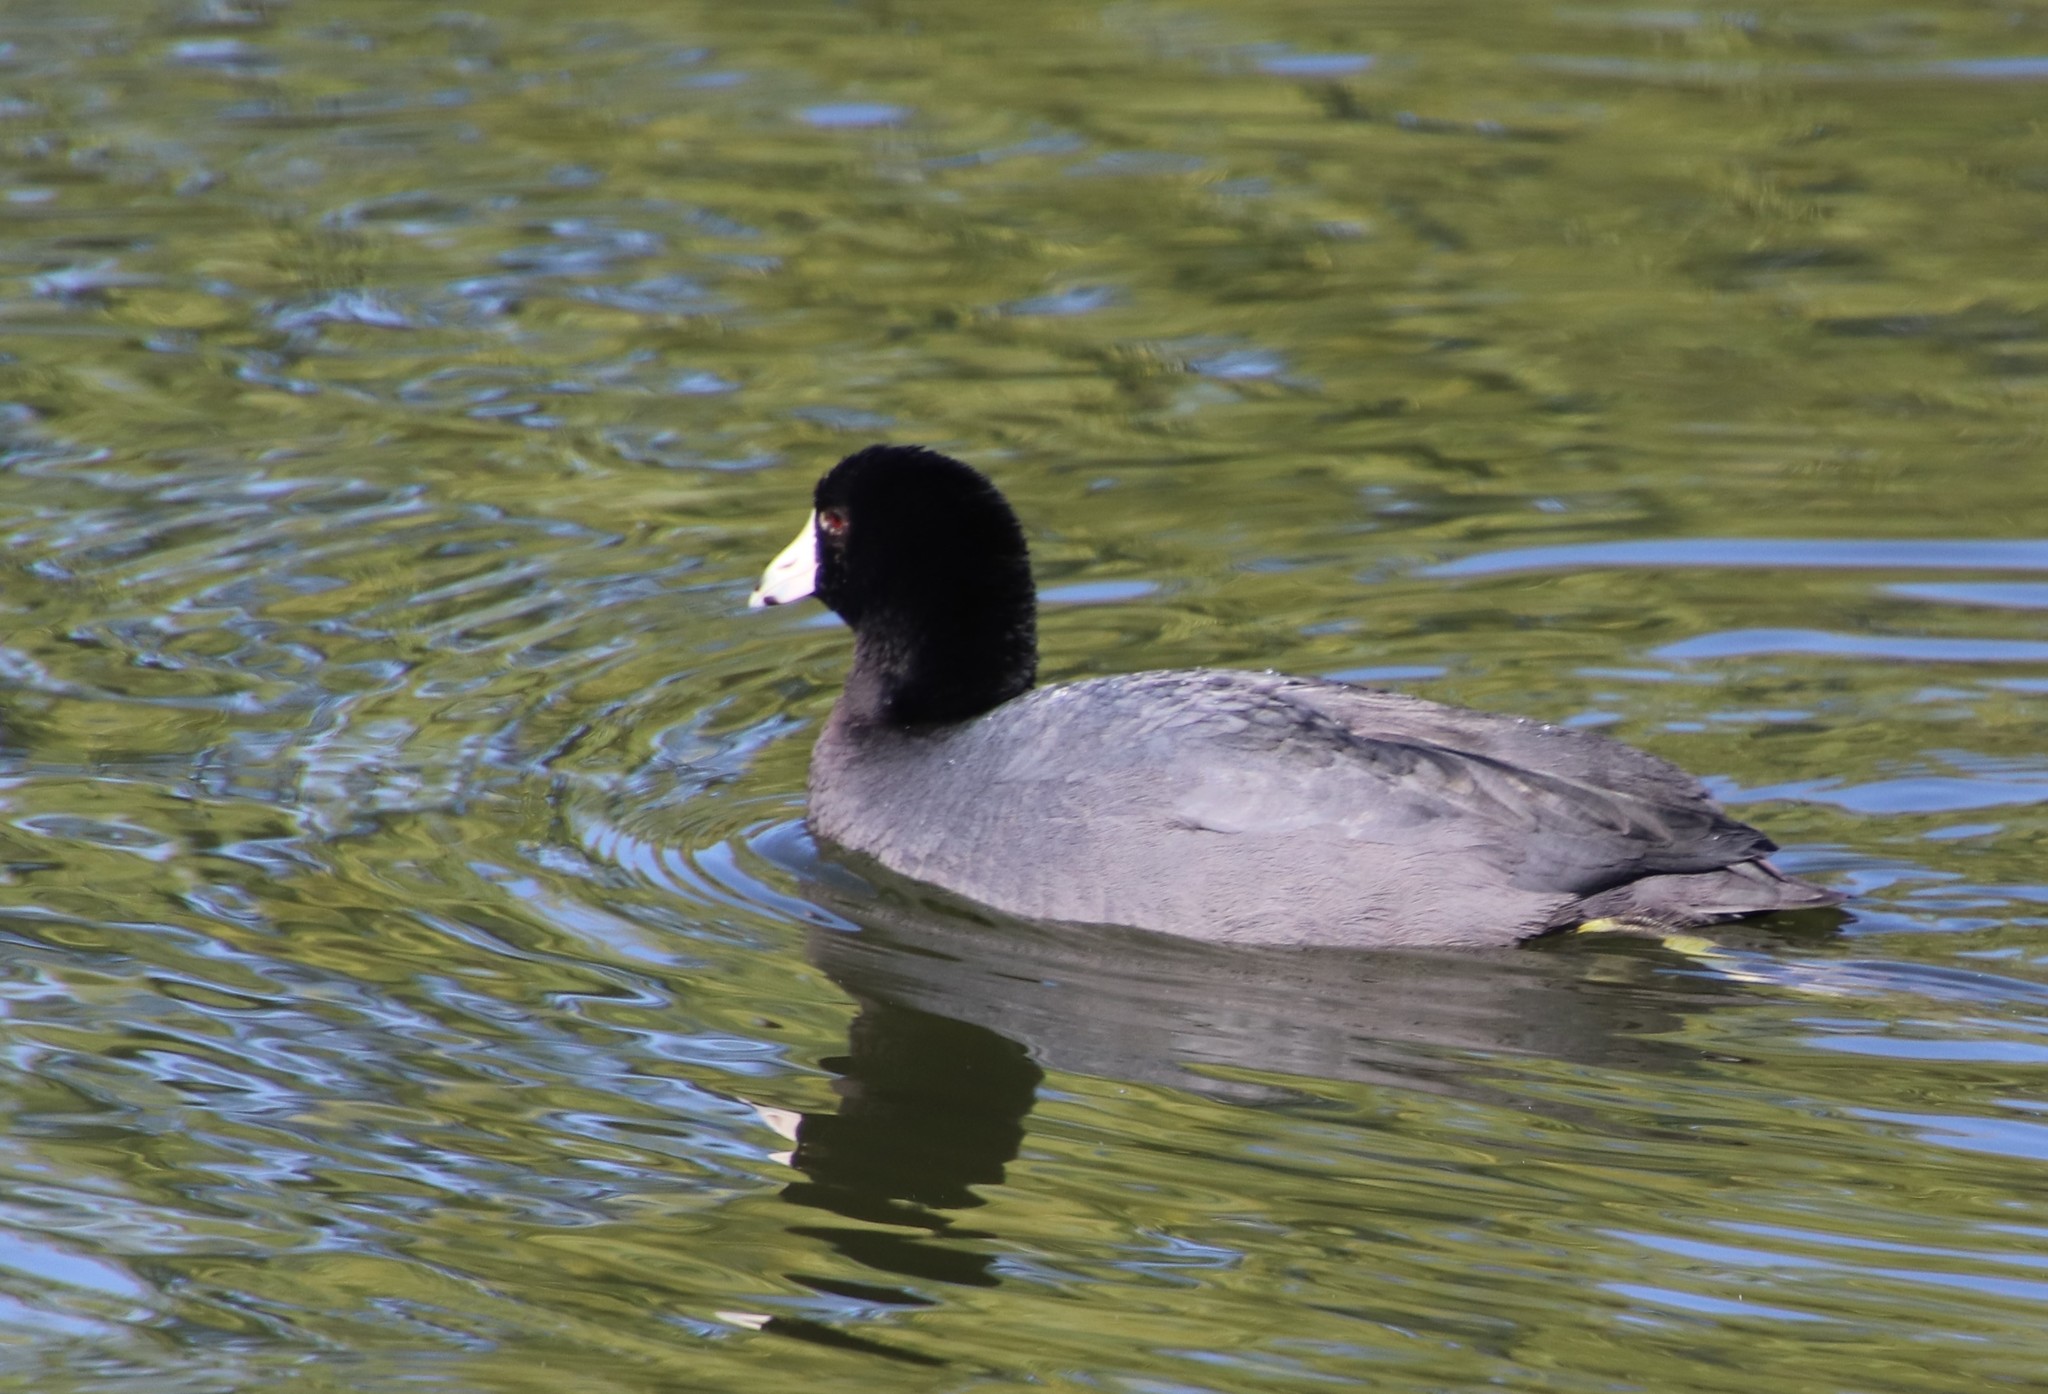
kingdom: Animalia
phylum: Chordata
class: Aves
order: Gruiformes
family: Rallidae
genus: Fulica
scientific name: Fulica americana
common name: American coot
